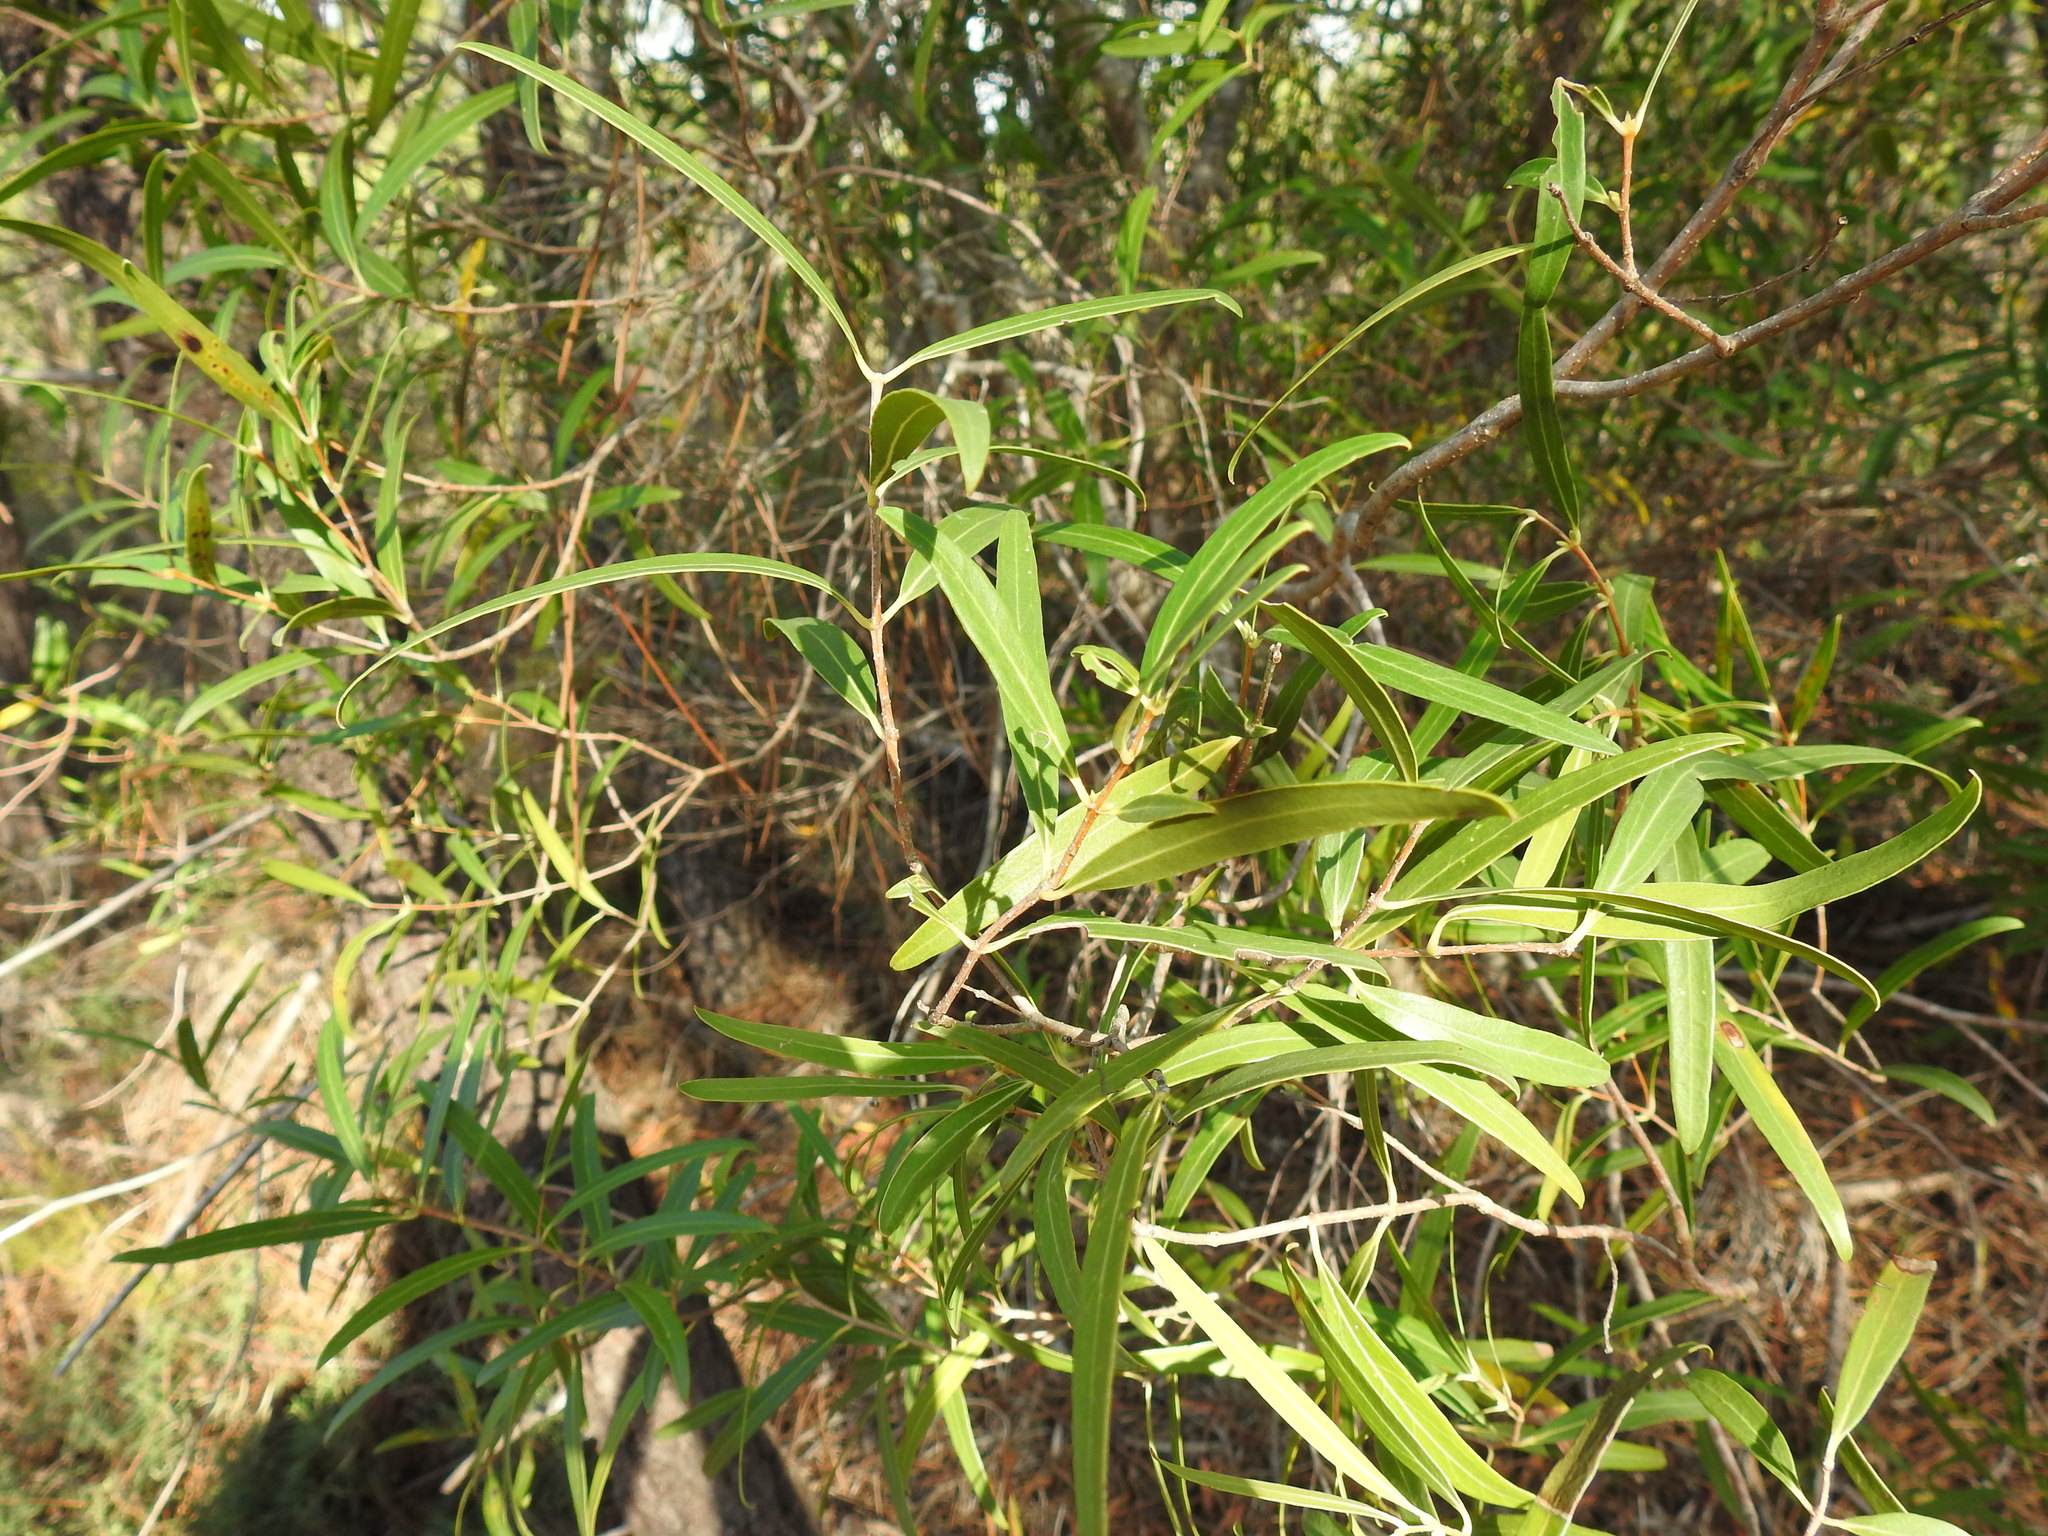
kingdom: Plantae
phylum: Tracheophyta
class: Magnoliopsida
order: Lamiales
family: Oleaceae
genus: Phillyrea
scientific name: Phillyrea angustifolia
